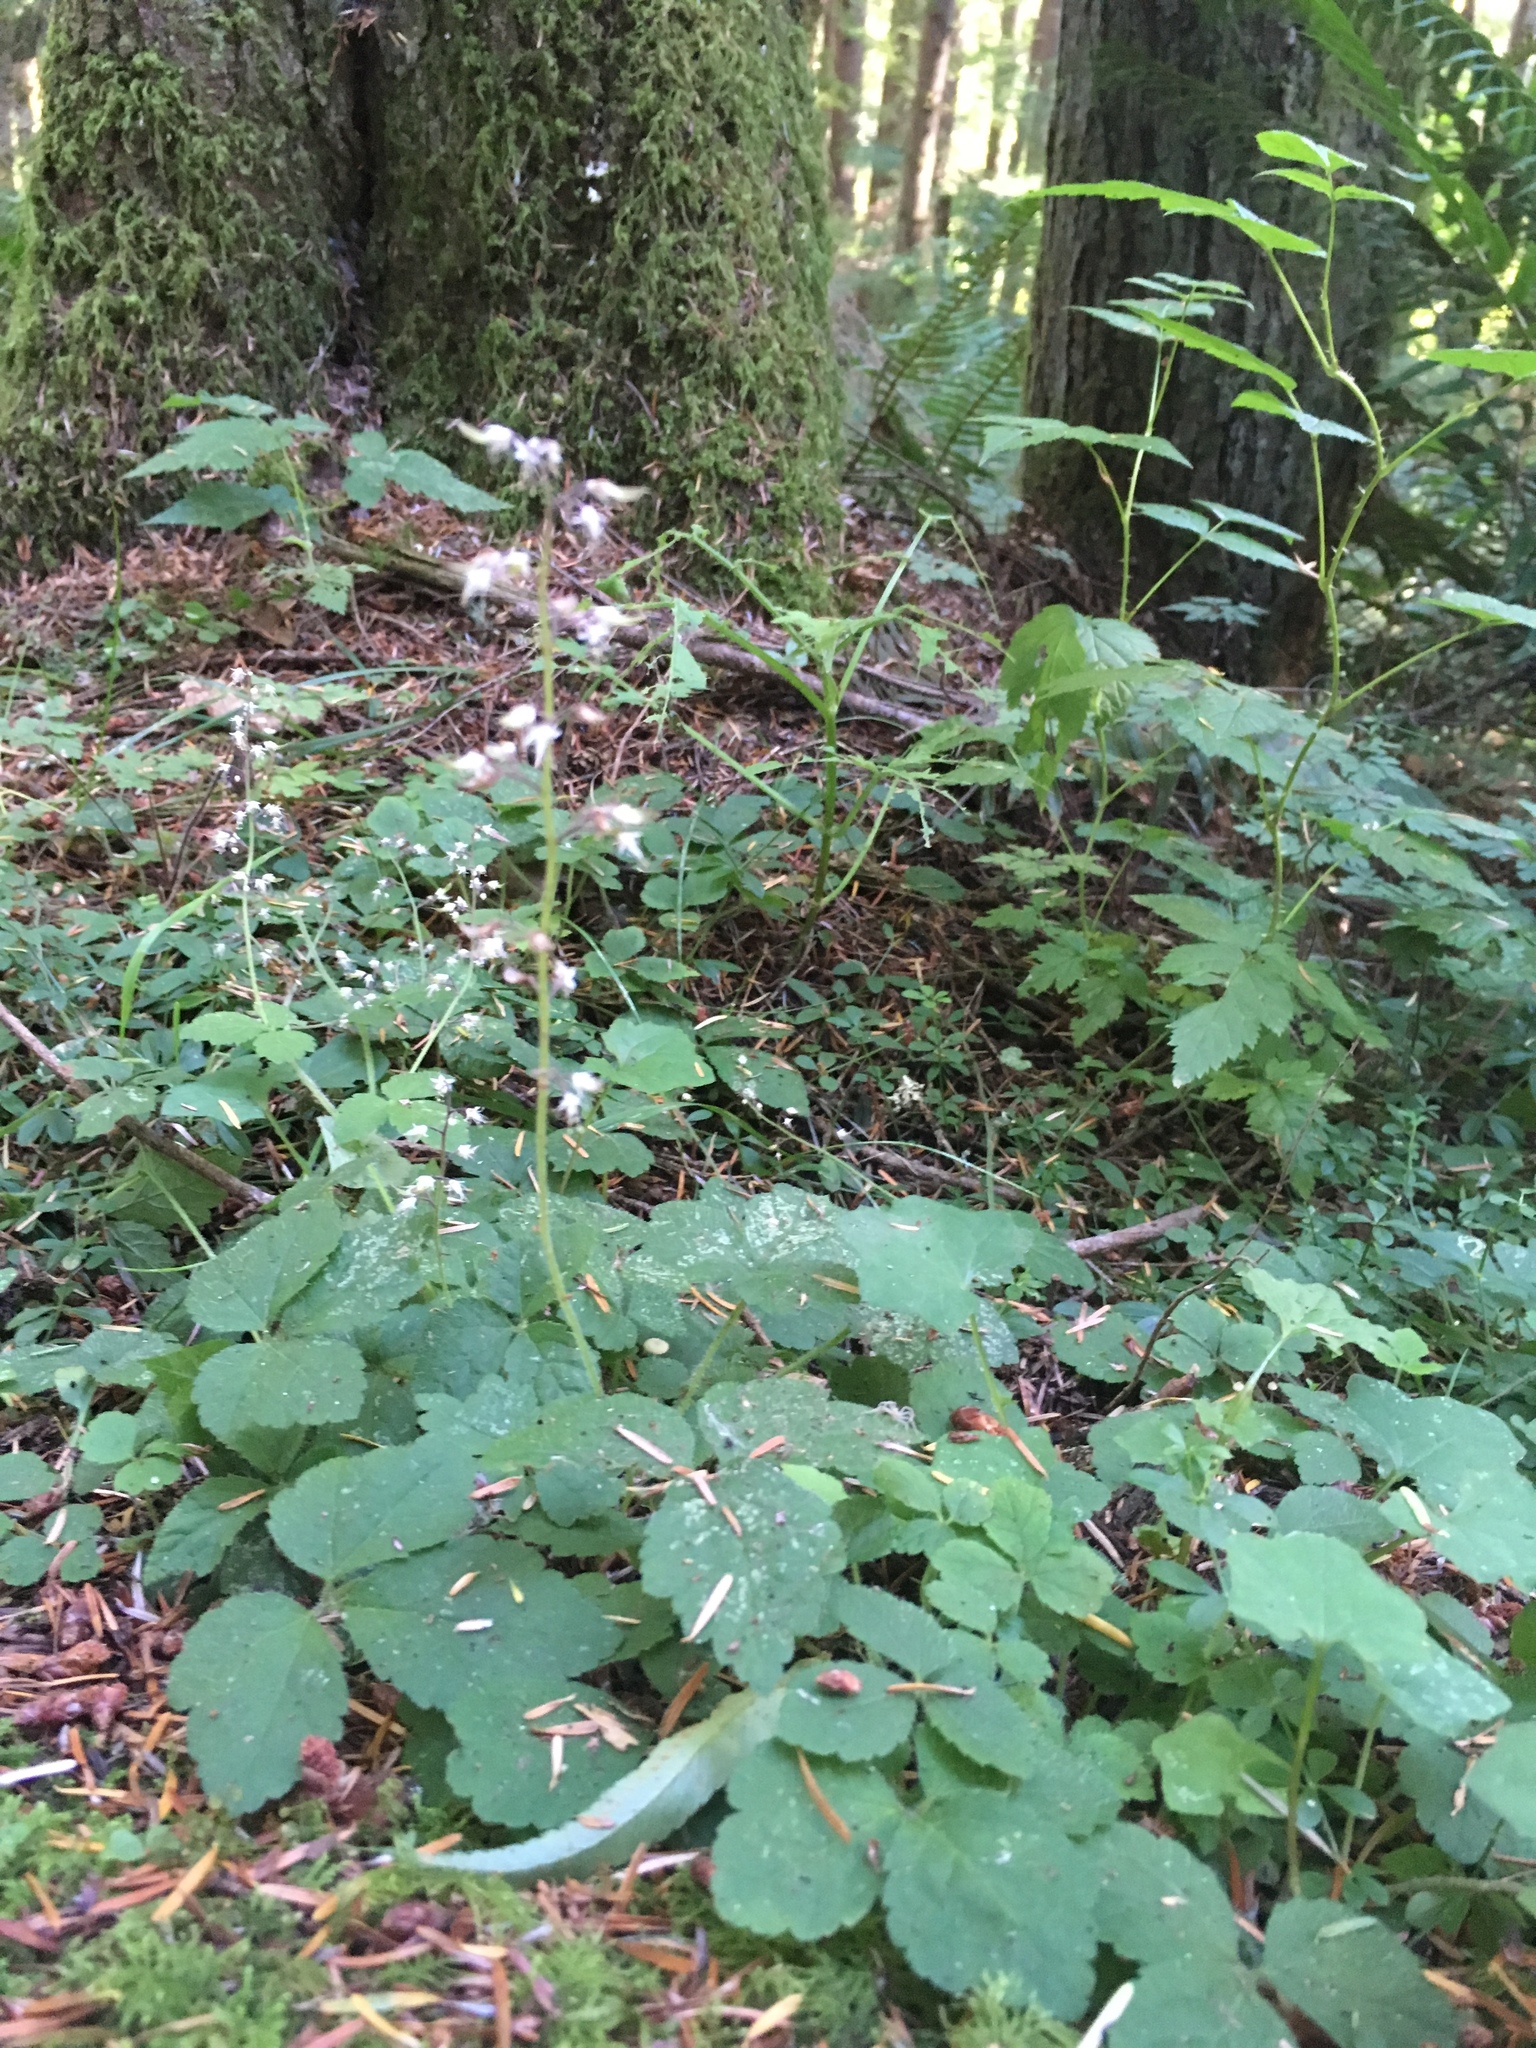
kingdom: Plantae
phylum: Tracheophyta
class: Magnoliopsida
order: Saxifragales
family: Saxifragaceae
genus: Tiarella
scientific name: Tiarella trifoliata
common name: Sugar-scoop
